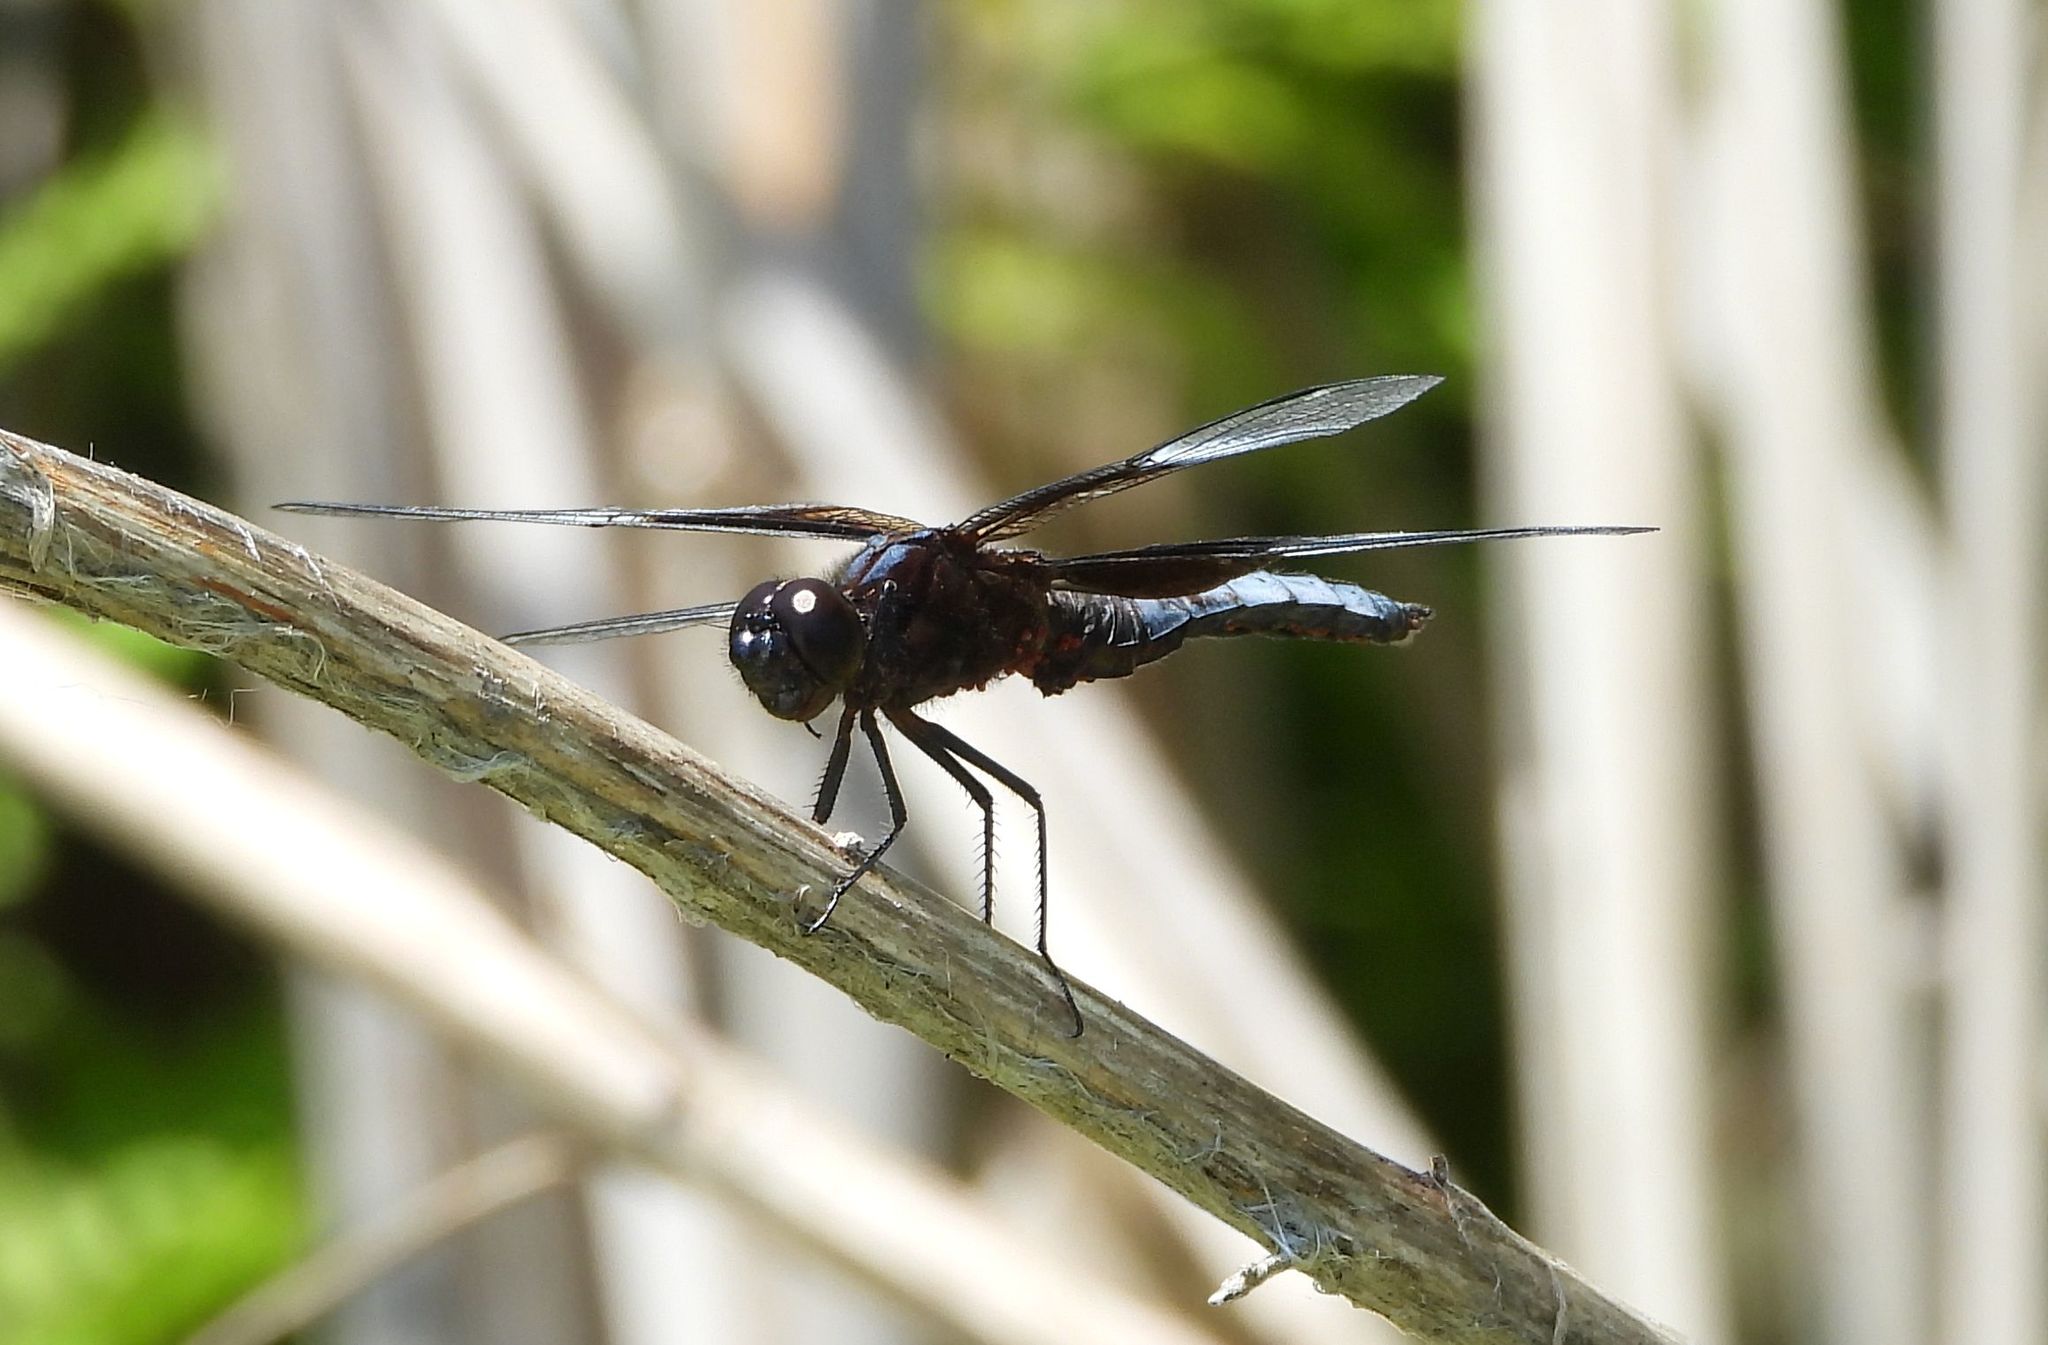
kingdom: Animalia
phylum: Arthropoda
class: Insecta
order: Odonata
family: Libellulidae
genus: Libellula
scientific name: Libellula luctuosa
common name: Widow skimmer
